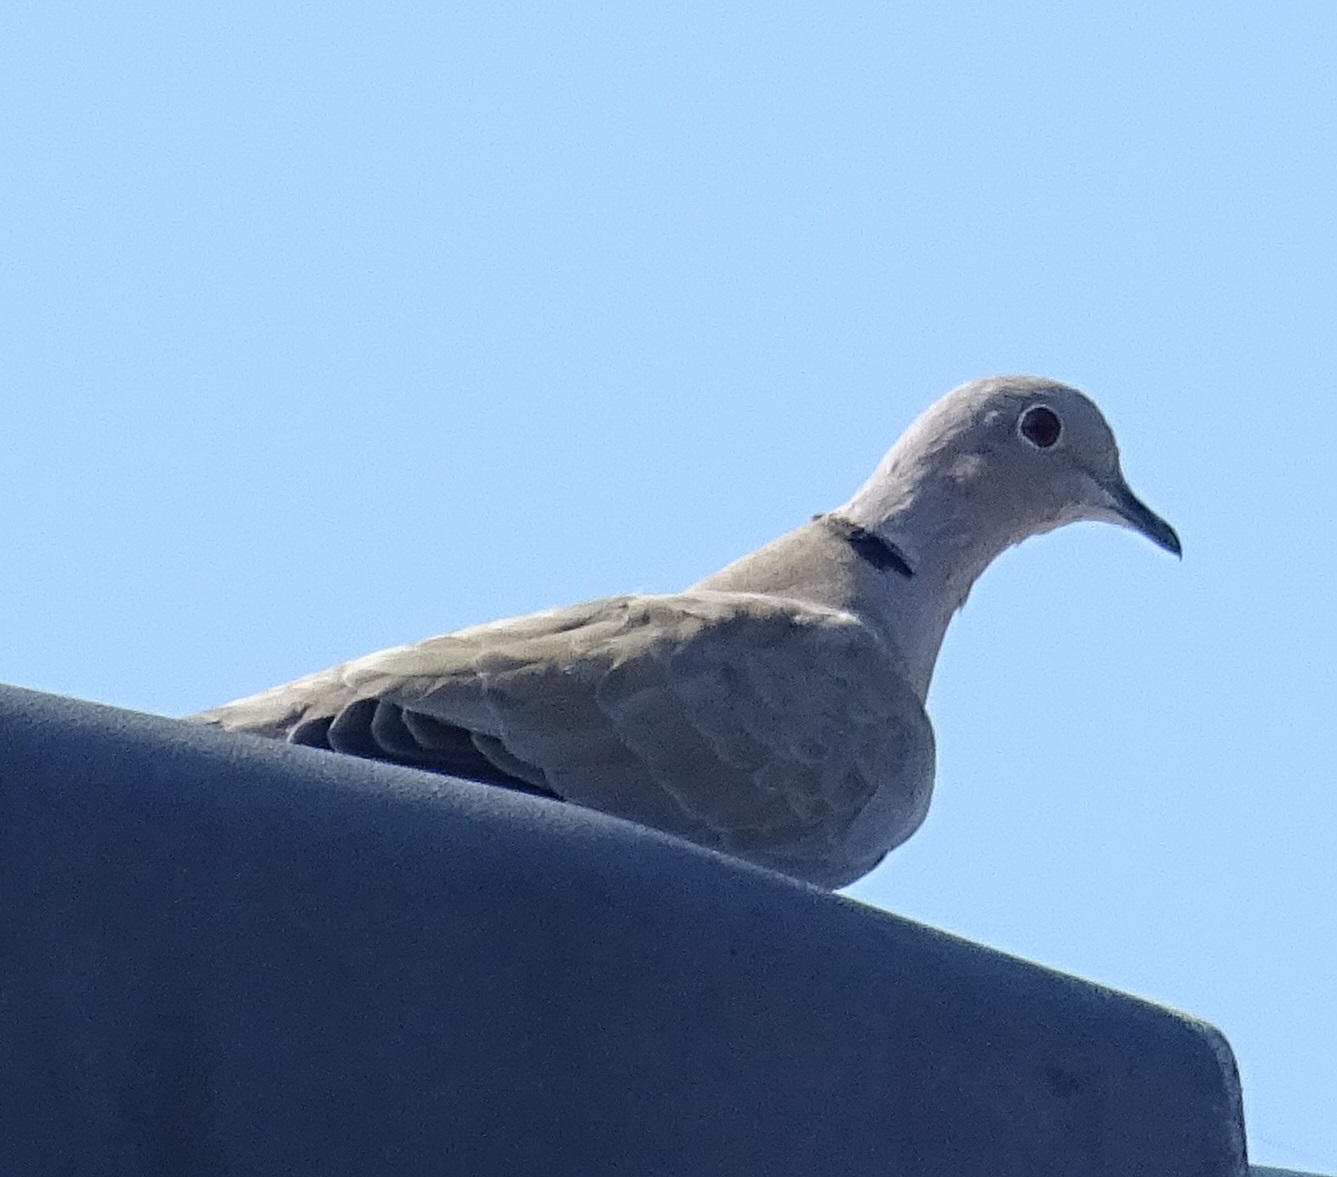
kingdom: Animalia
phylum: Chordata
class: Aves
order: Columbiformes
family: Columbidae
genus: Streptopelia
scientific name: Streptopelia decaocto
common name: Eurasian collared dove
